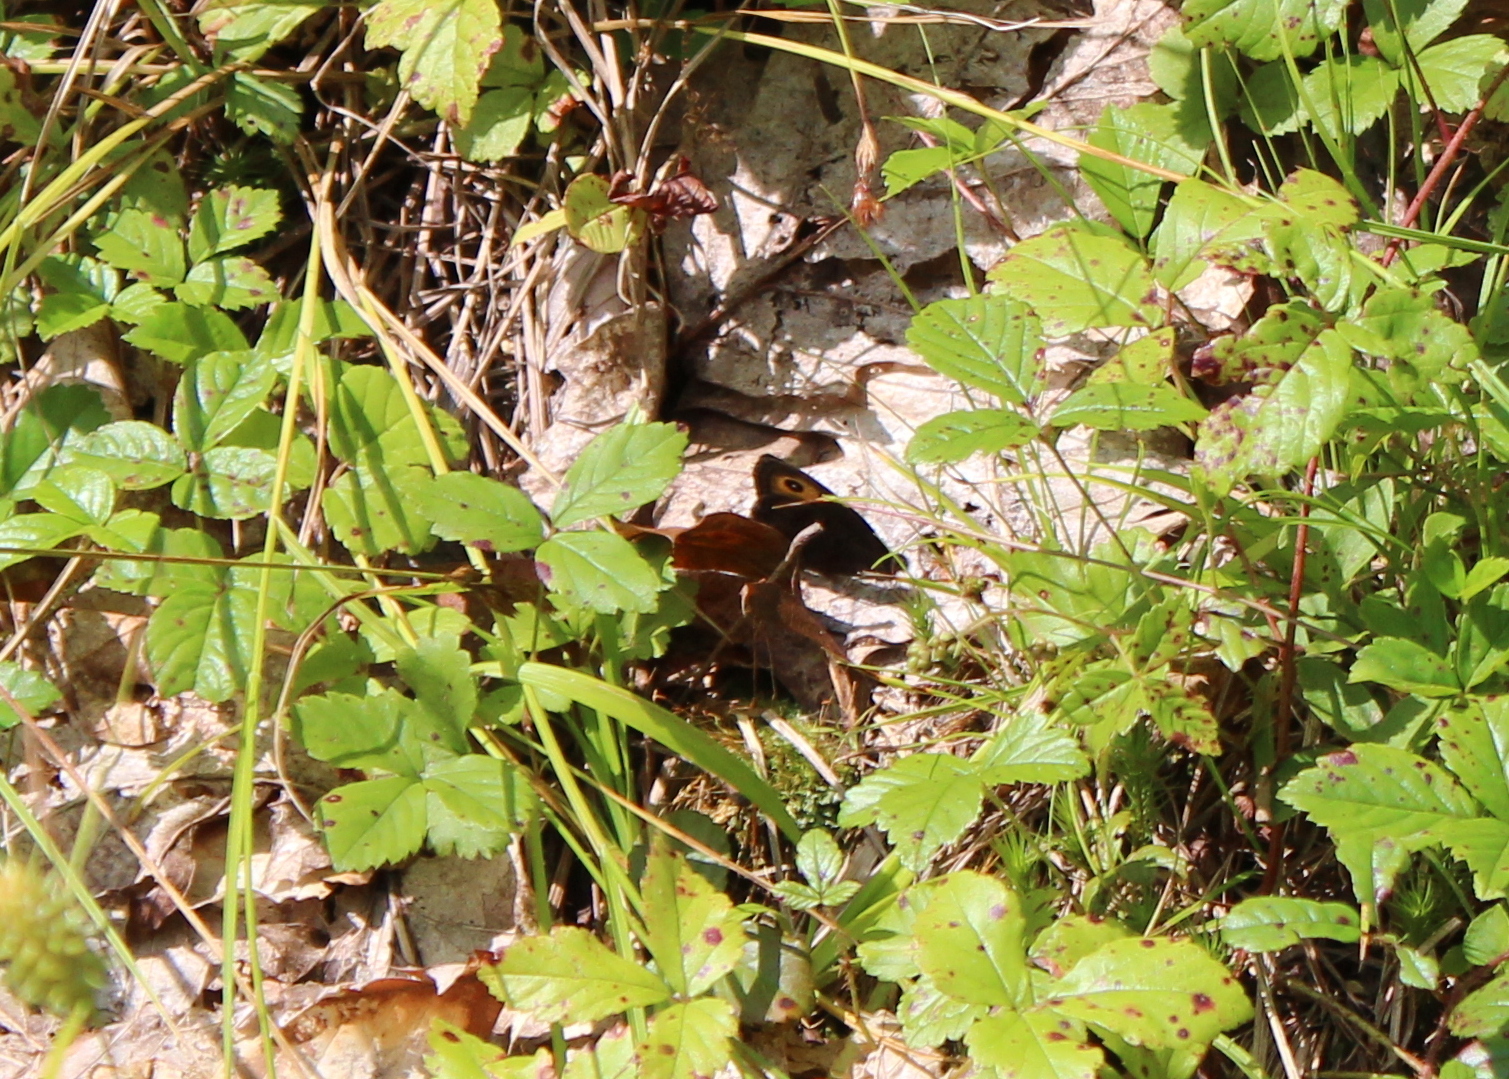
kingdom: Animalia
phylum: Arthropoda
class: Insecta
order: Lepidoptera
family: Nymphalidae
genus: Cercyonis
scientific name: Cercyonis pegala
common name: Common wood-nymph
